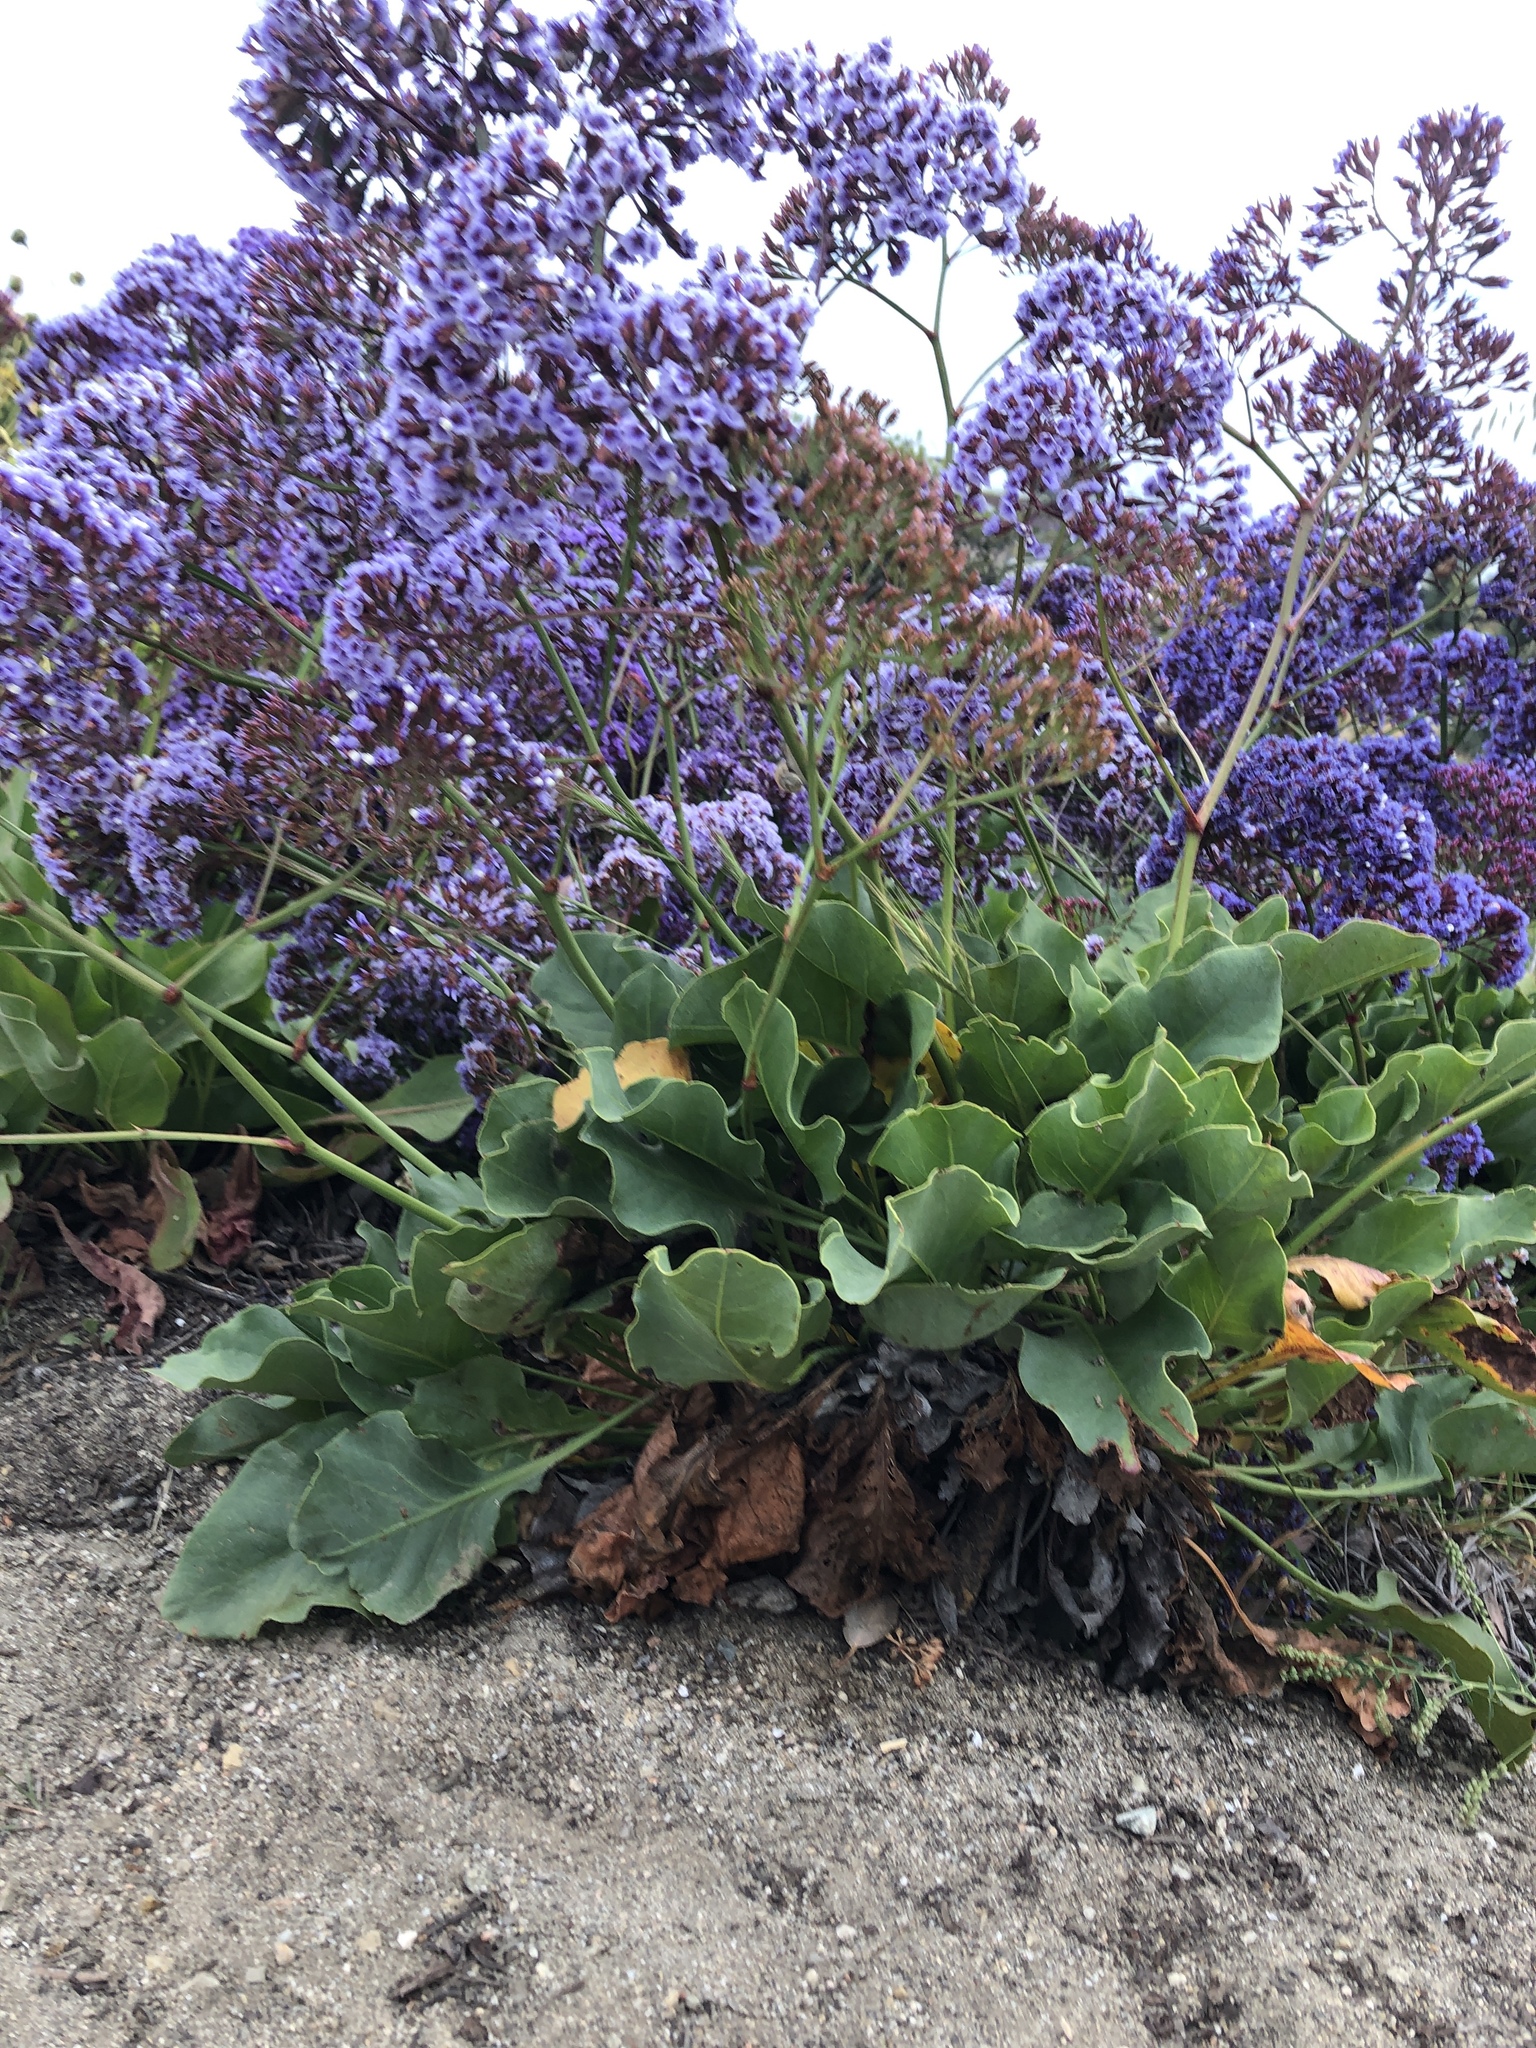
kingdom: Plantae
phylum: Tracheophyta
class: Magnoliopsida
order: Caryophyllales
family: Plumbaginaceae
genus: Limonium
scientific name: Limonium perezii
